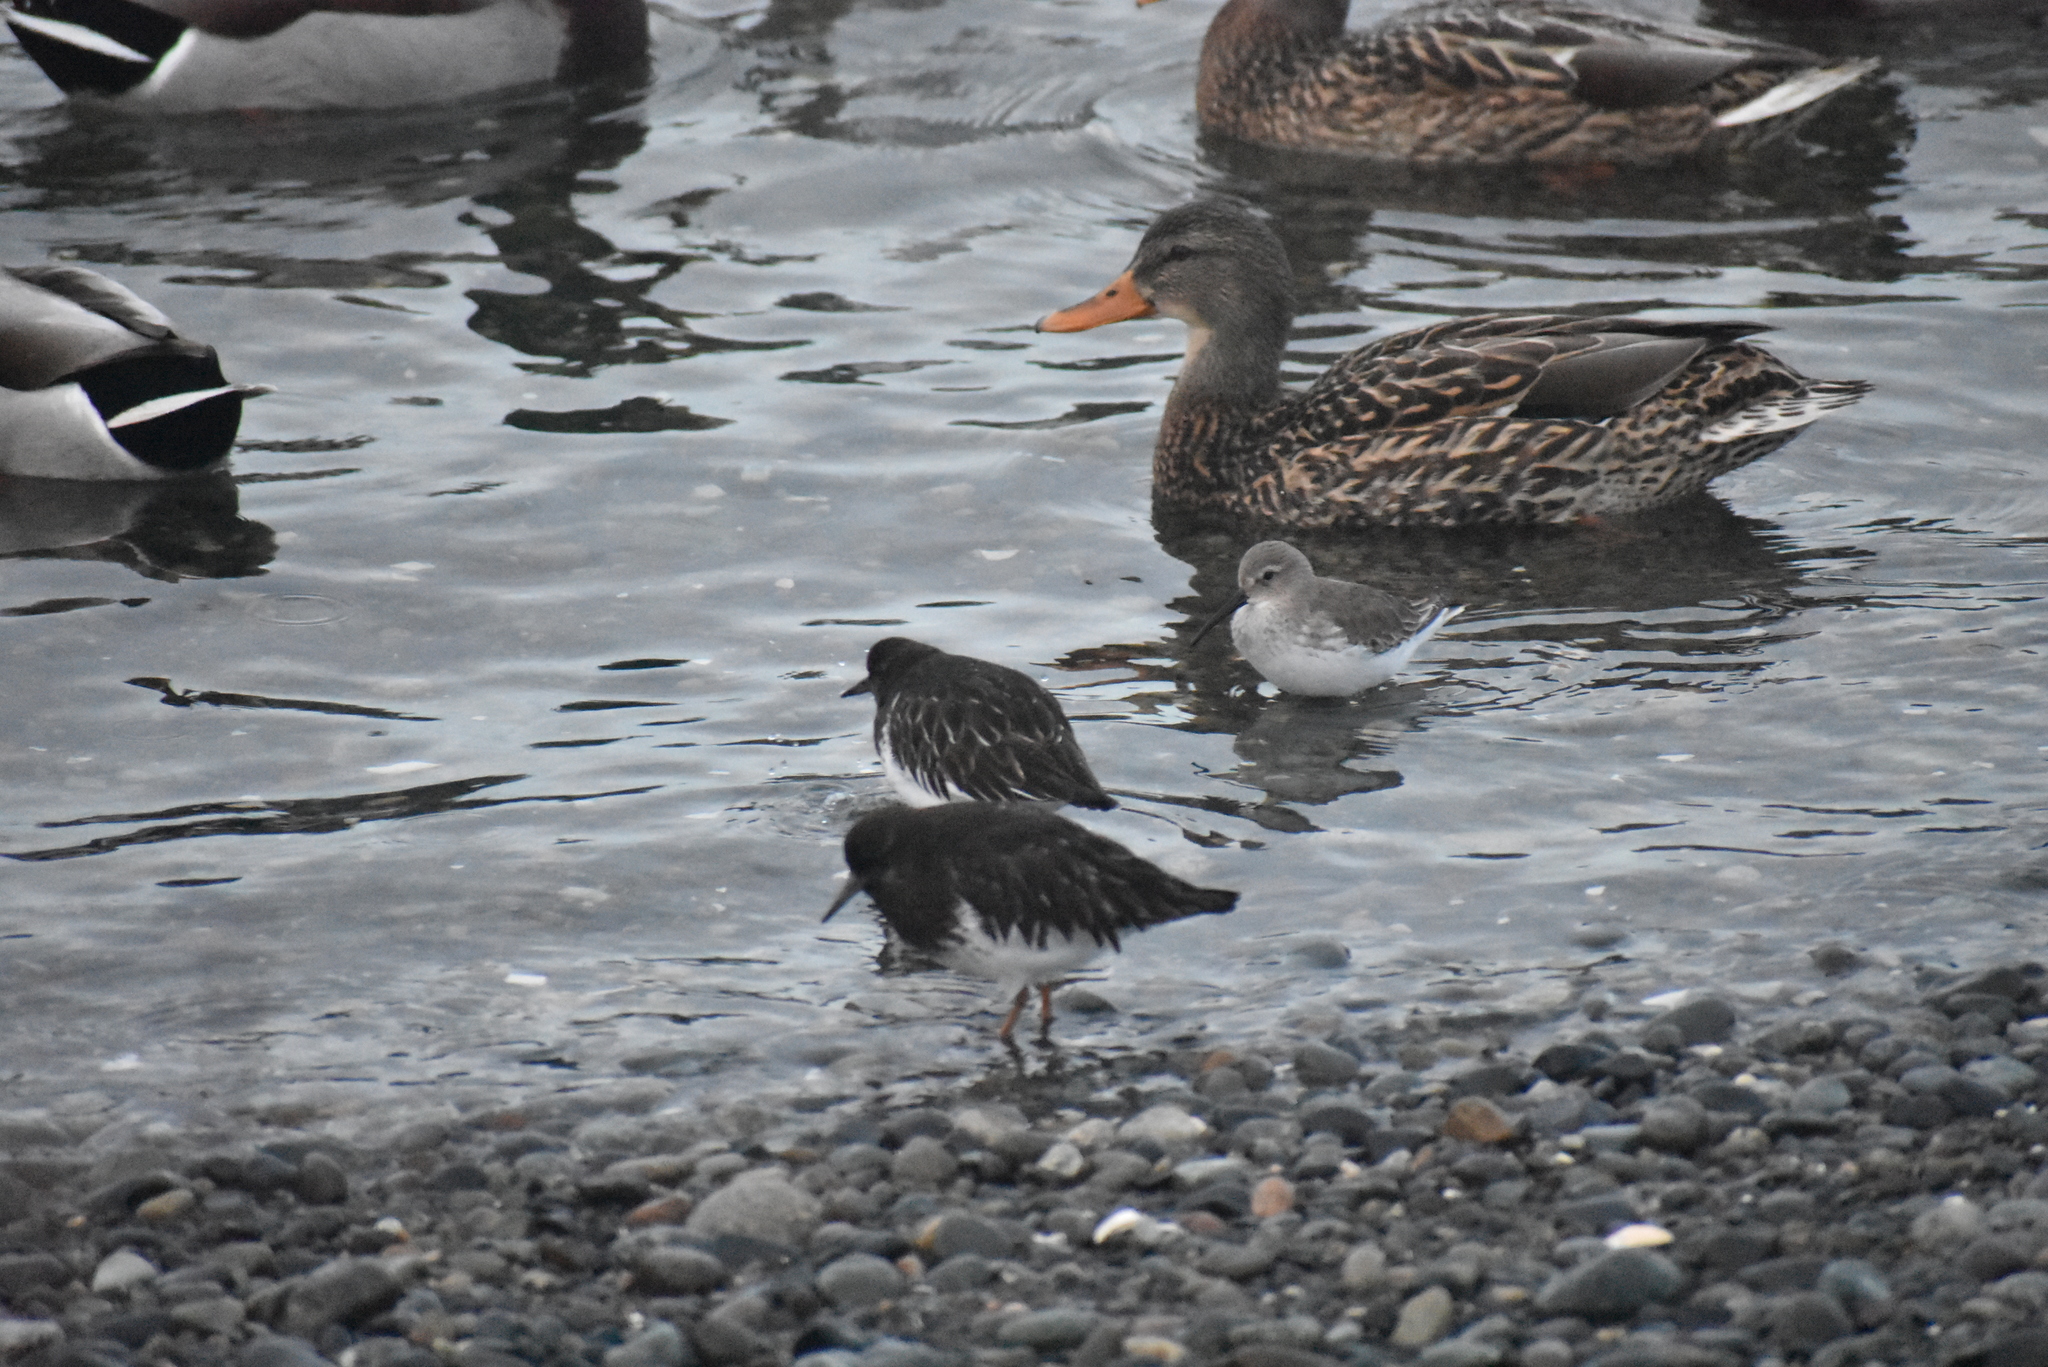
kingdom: Animalia
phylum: Chordata
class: Aves
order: Charadriiformes
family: Scolopacidae
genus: Arenaria
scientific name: Arenaria melanocephala
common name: Black turnstone
